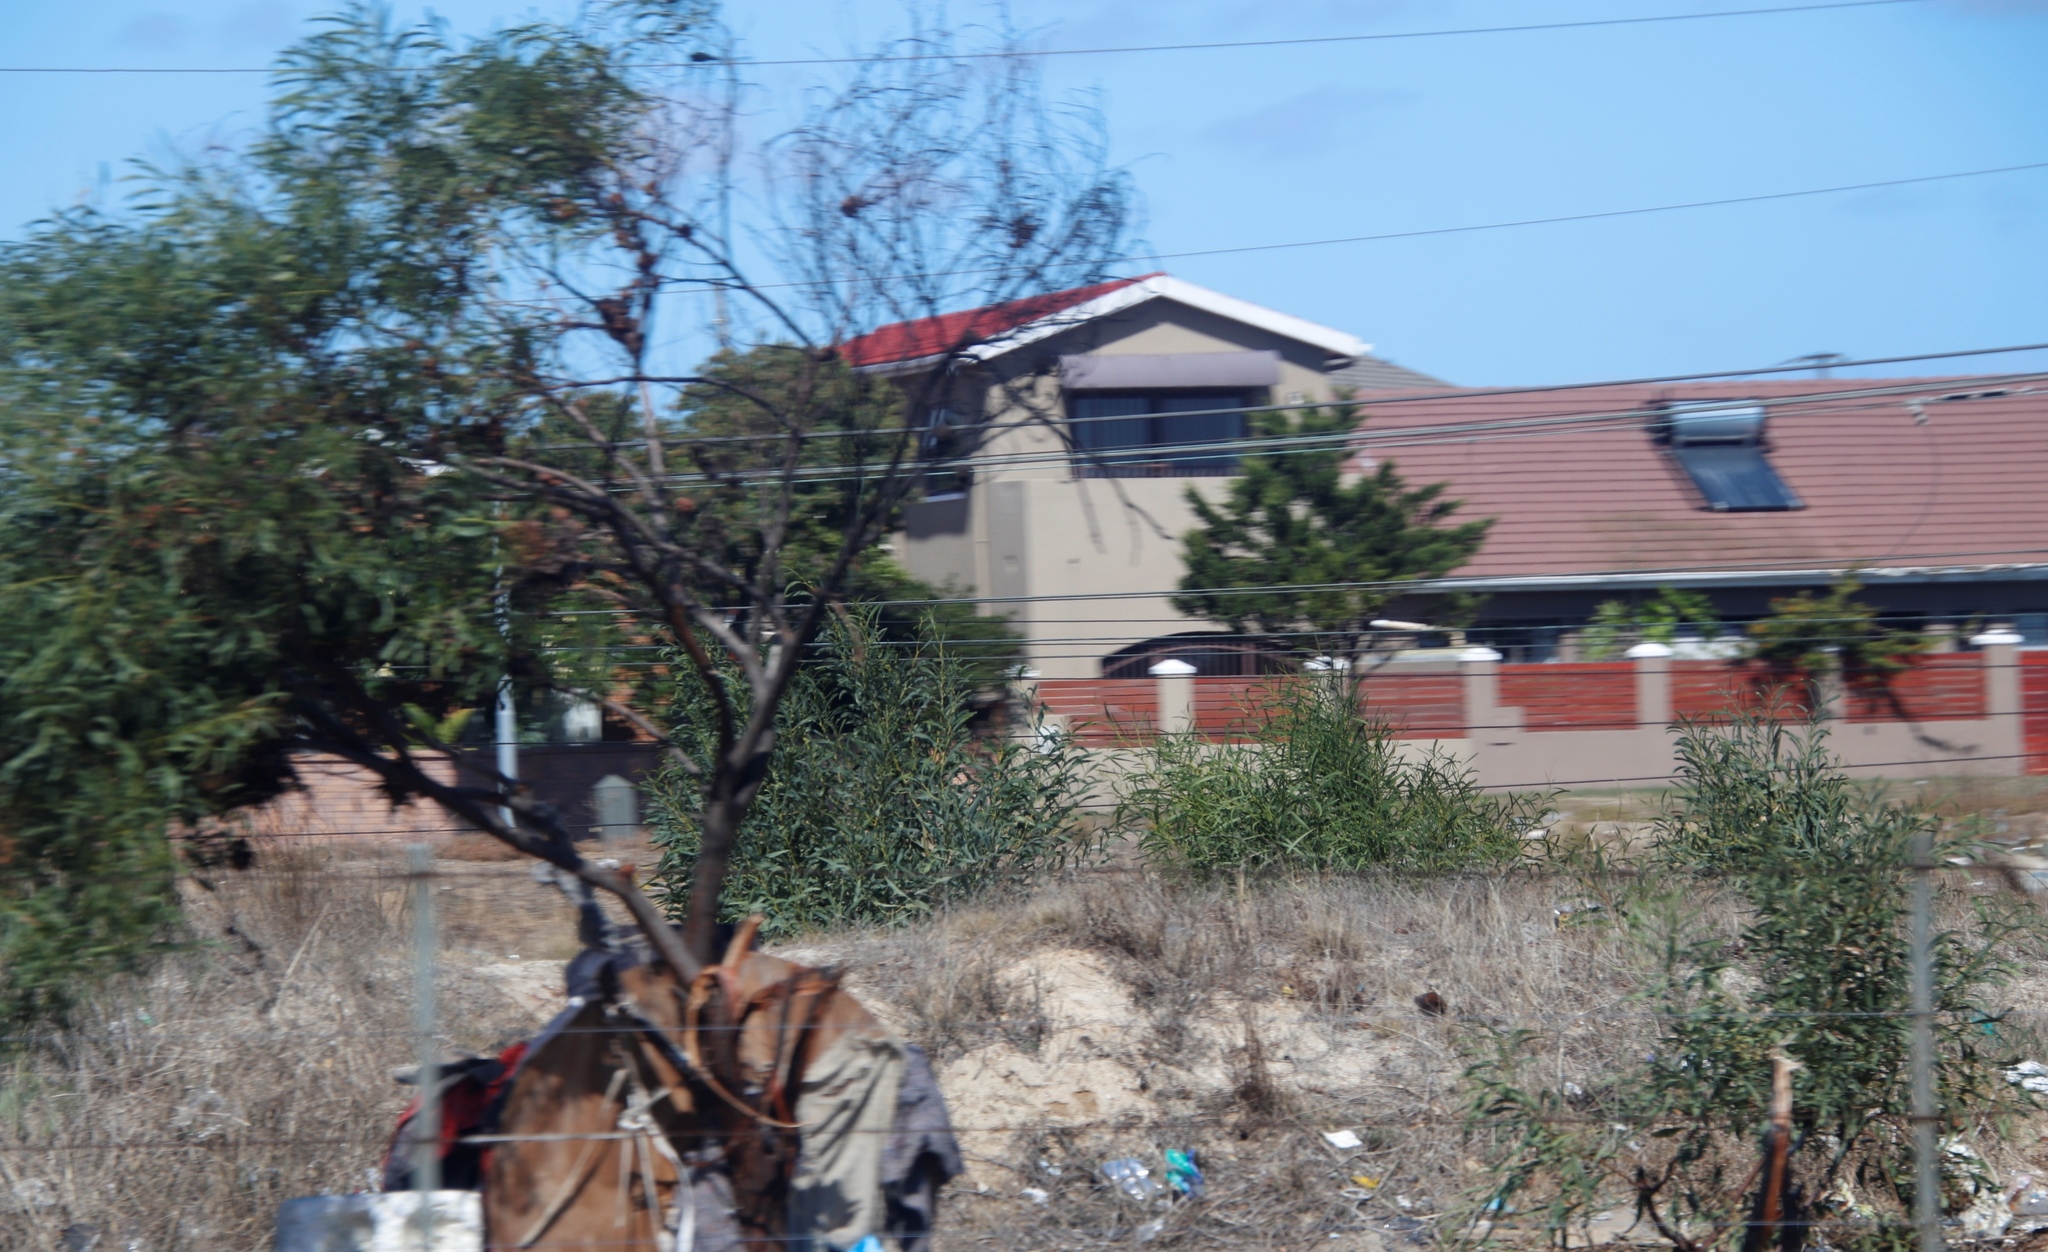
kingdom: Plantae
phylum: Tracheophyta
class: Magnoliopsida
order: Fabales
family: Fabaceae
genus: Acacia
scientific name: Acacia saligna
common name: Orange wattle
